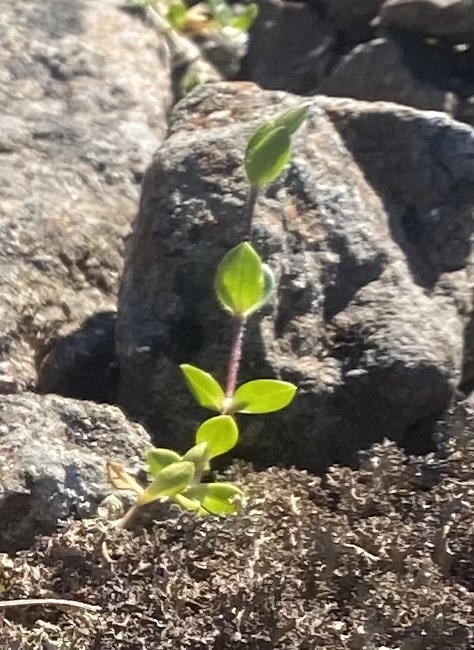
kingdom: Plantae
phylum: Tracheophyta
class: Magnoliopsida
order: Caryophyllales
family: Caryophyllaceae
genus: Cerastium
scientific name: Cerastium regelii
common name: Regel's chickweed
